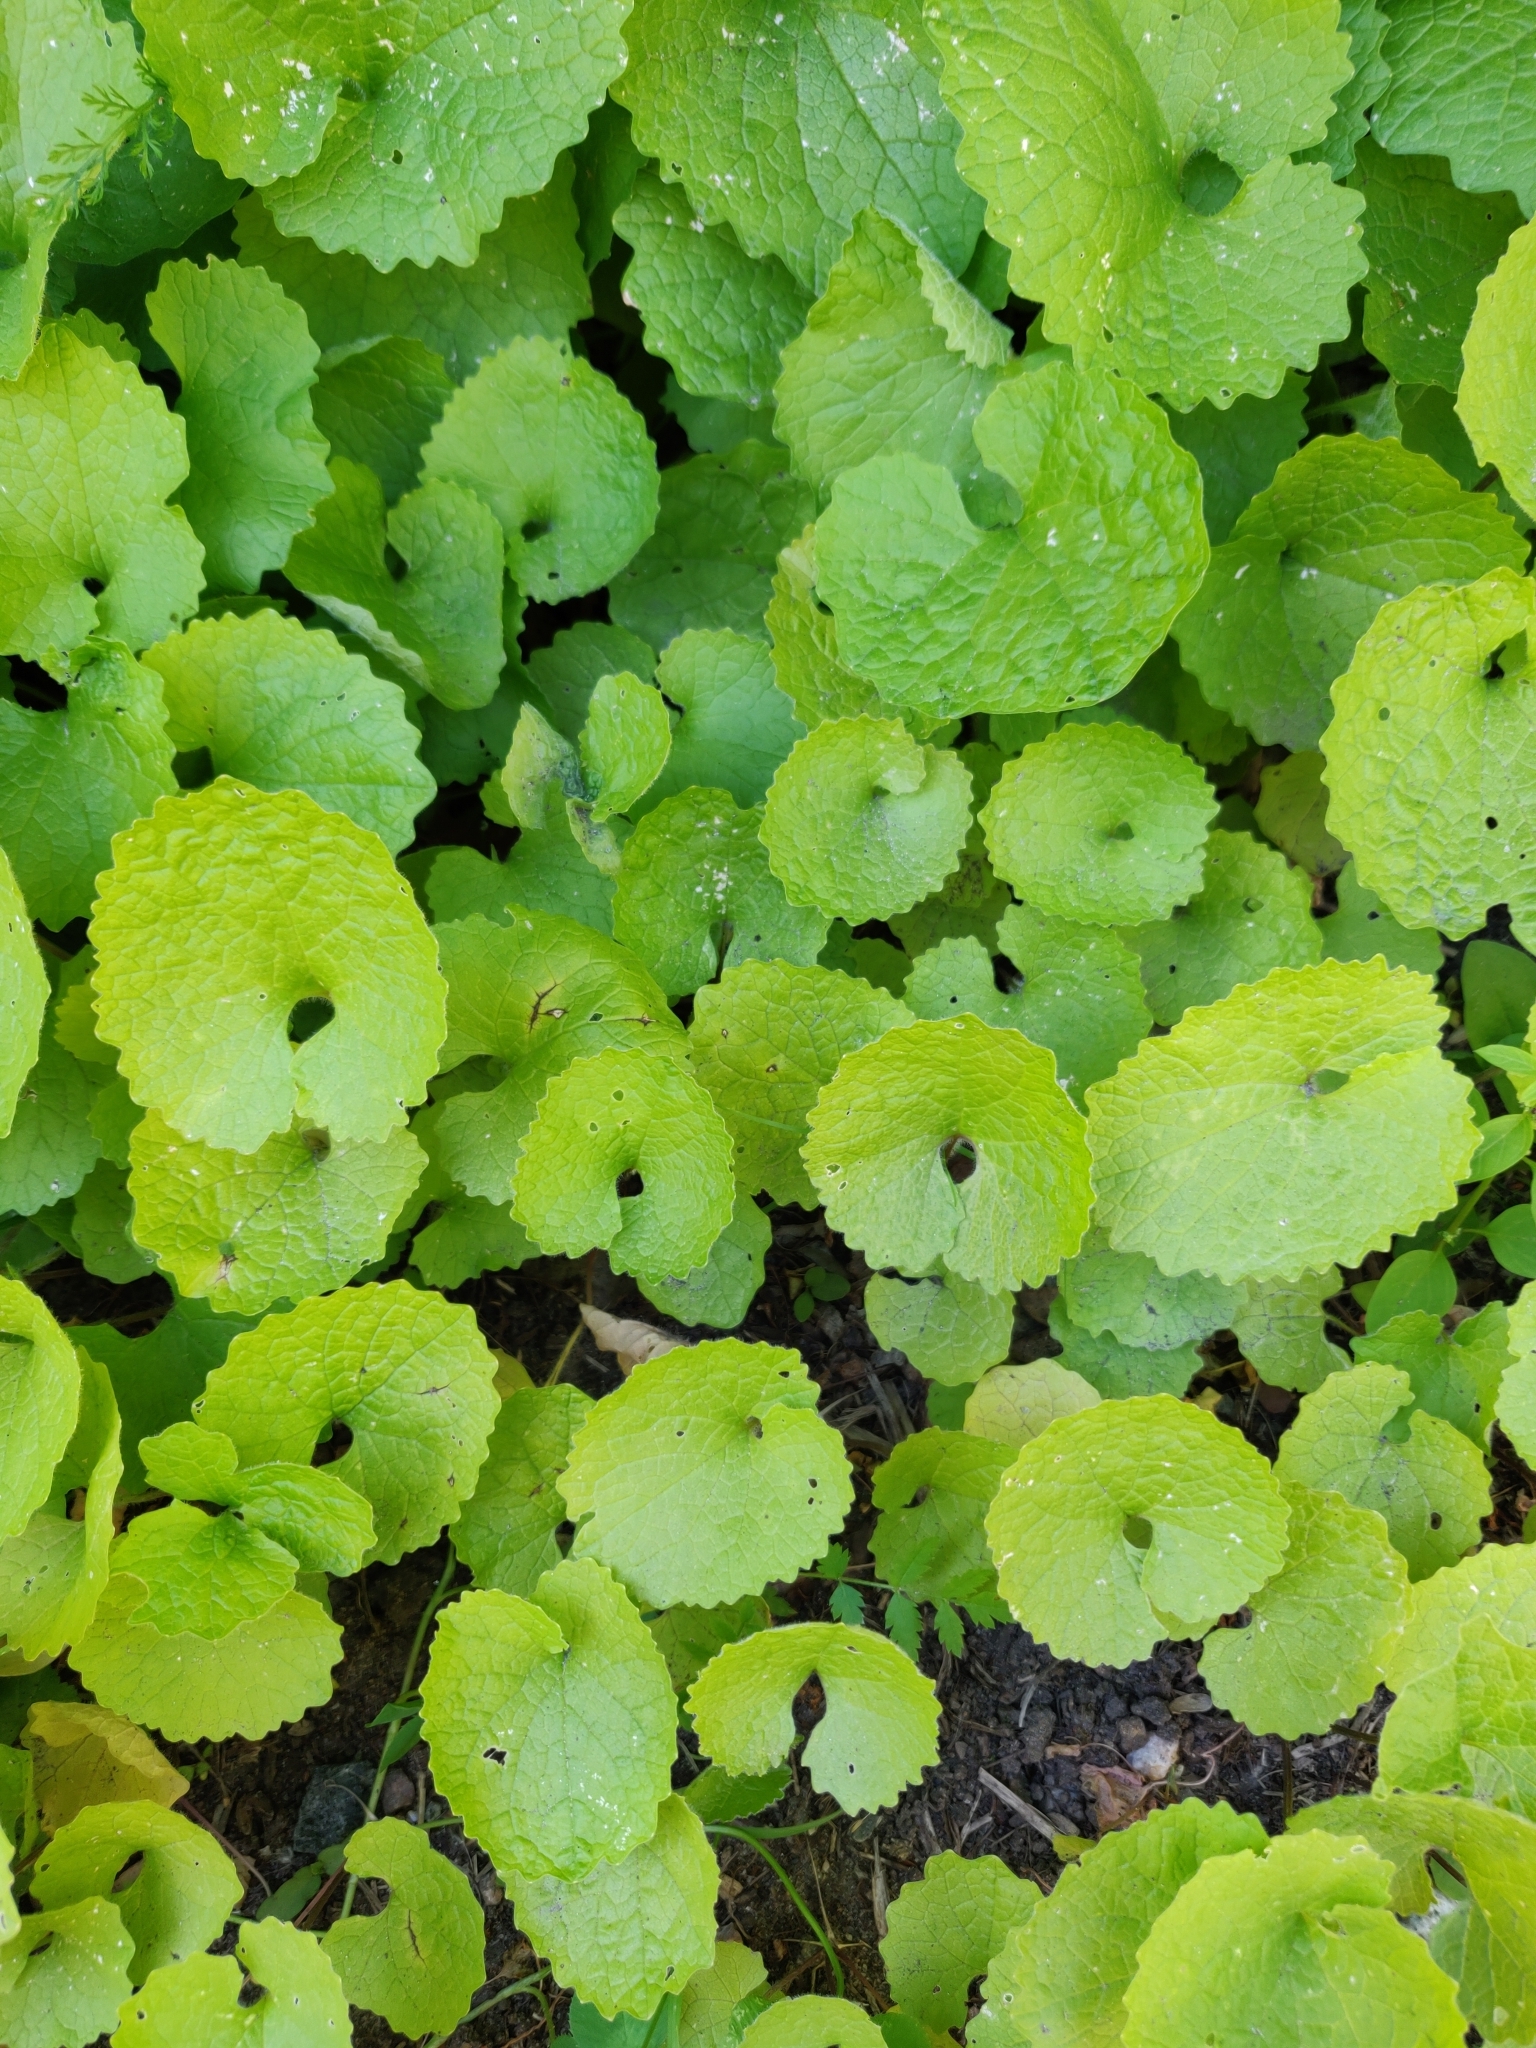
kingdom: Plantae
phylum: Tracheophyta
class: Magnoliopsida
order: Brassicales
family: Brassicaceae
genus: Alliaria
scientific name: Alliaria petiolata
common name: Garlic mustard
